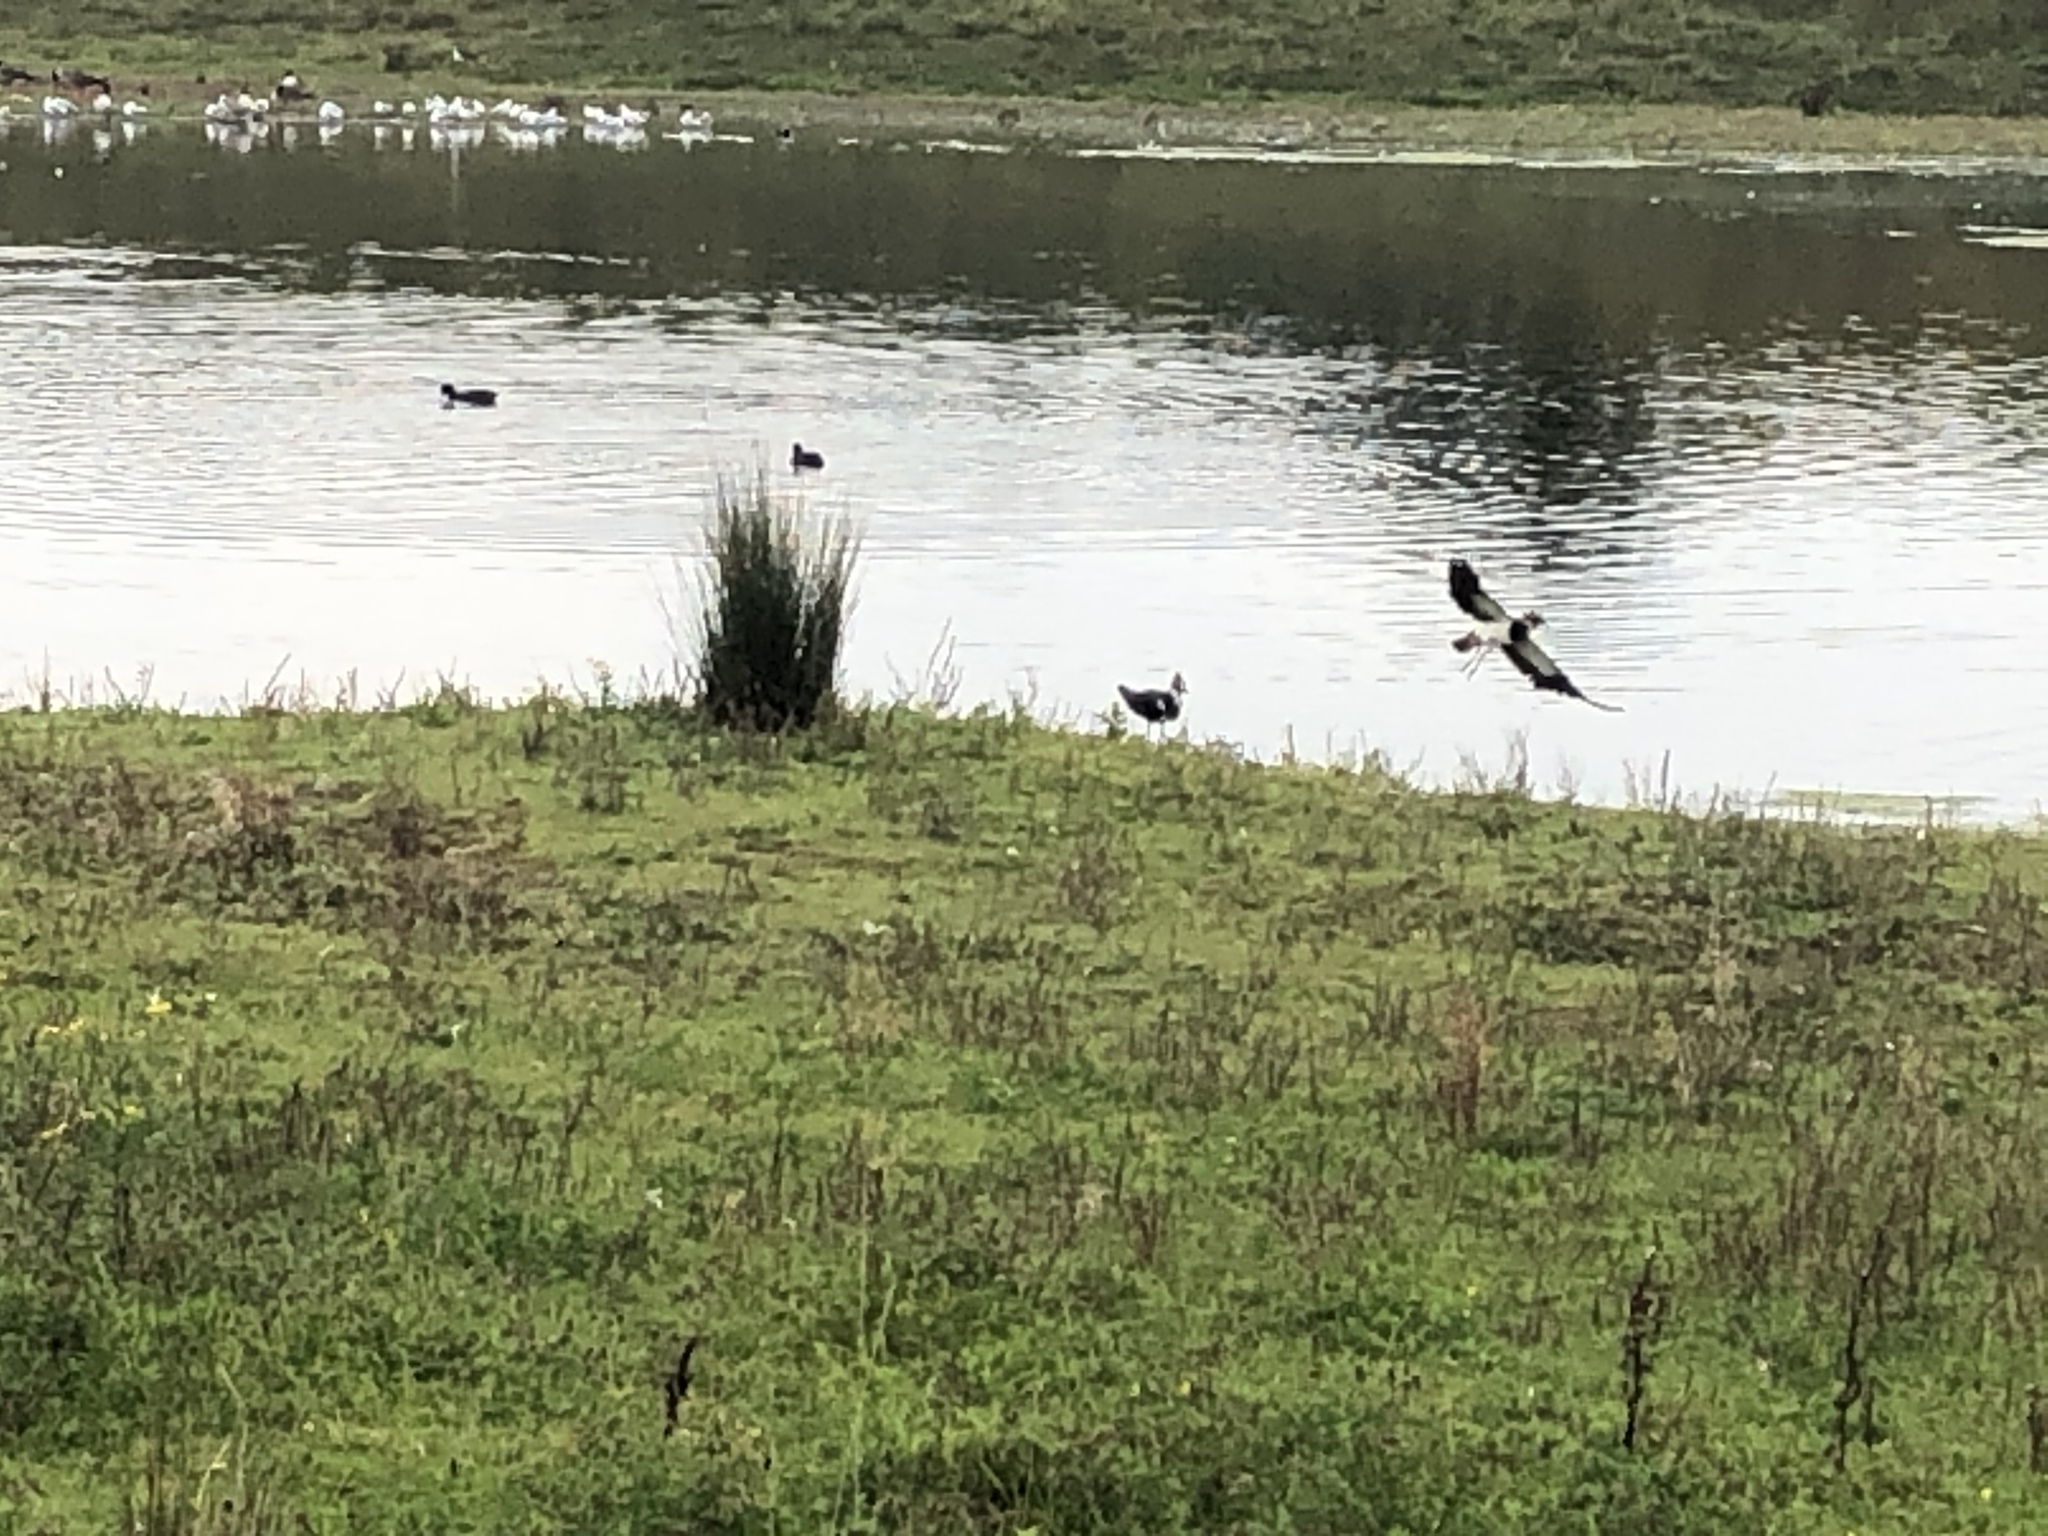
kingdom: Animalia
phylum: Chordata
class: Aves
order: Charadriiformes
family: Charadriidae
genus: Vanellus
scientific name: Vanellus vanellus
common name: Northern lapwing
